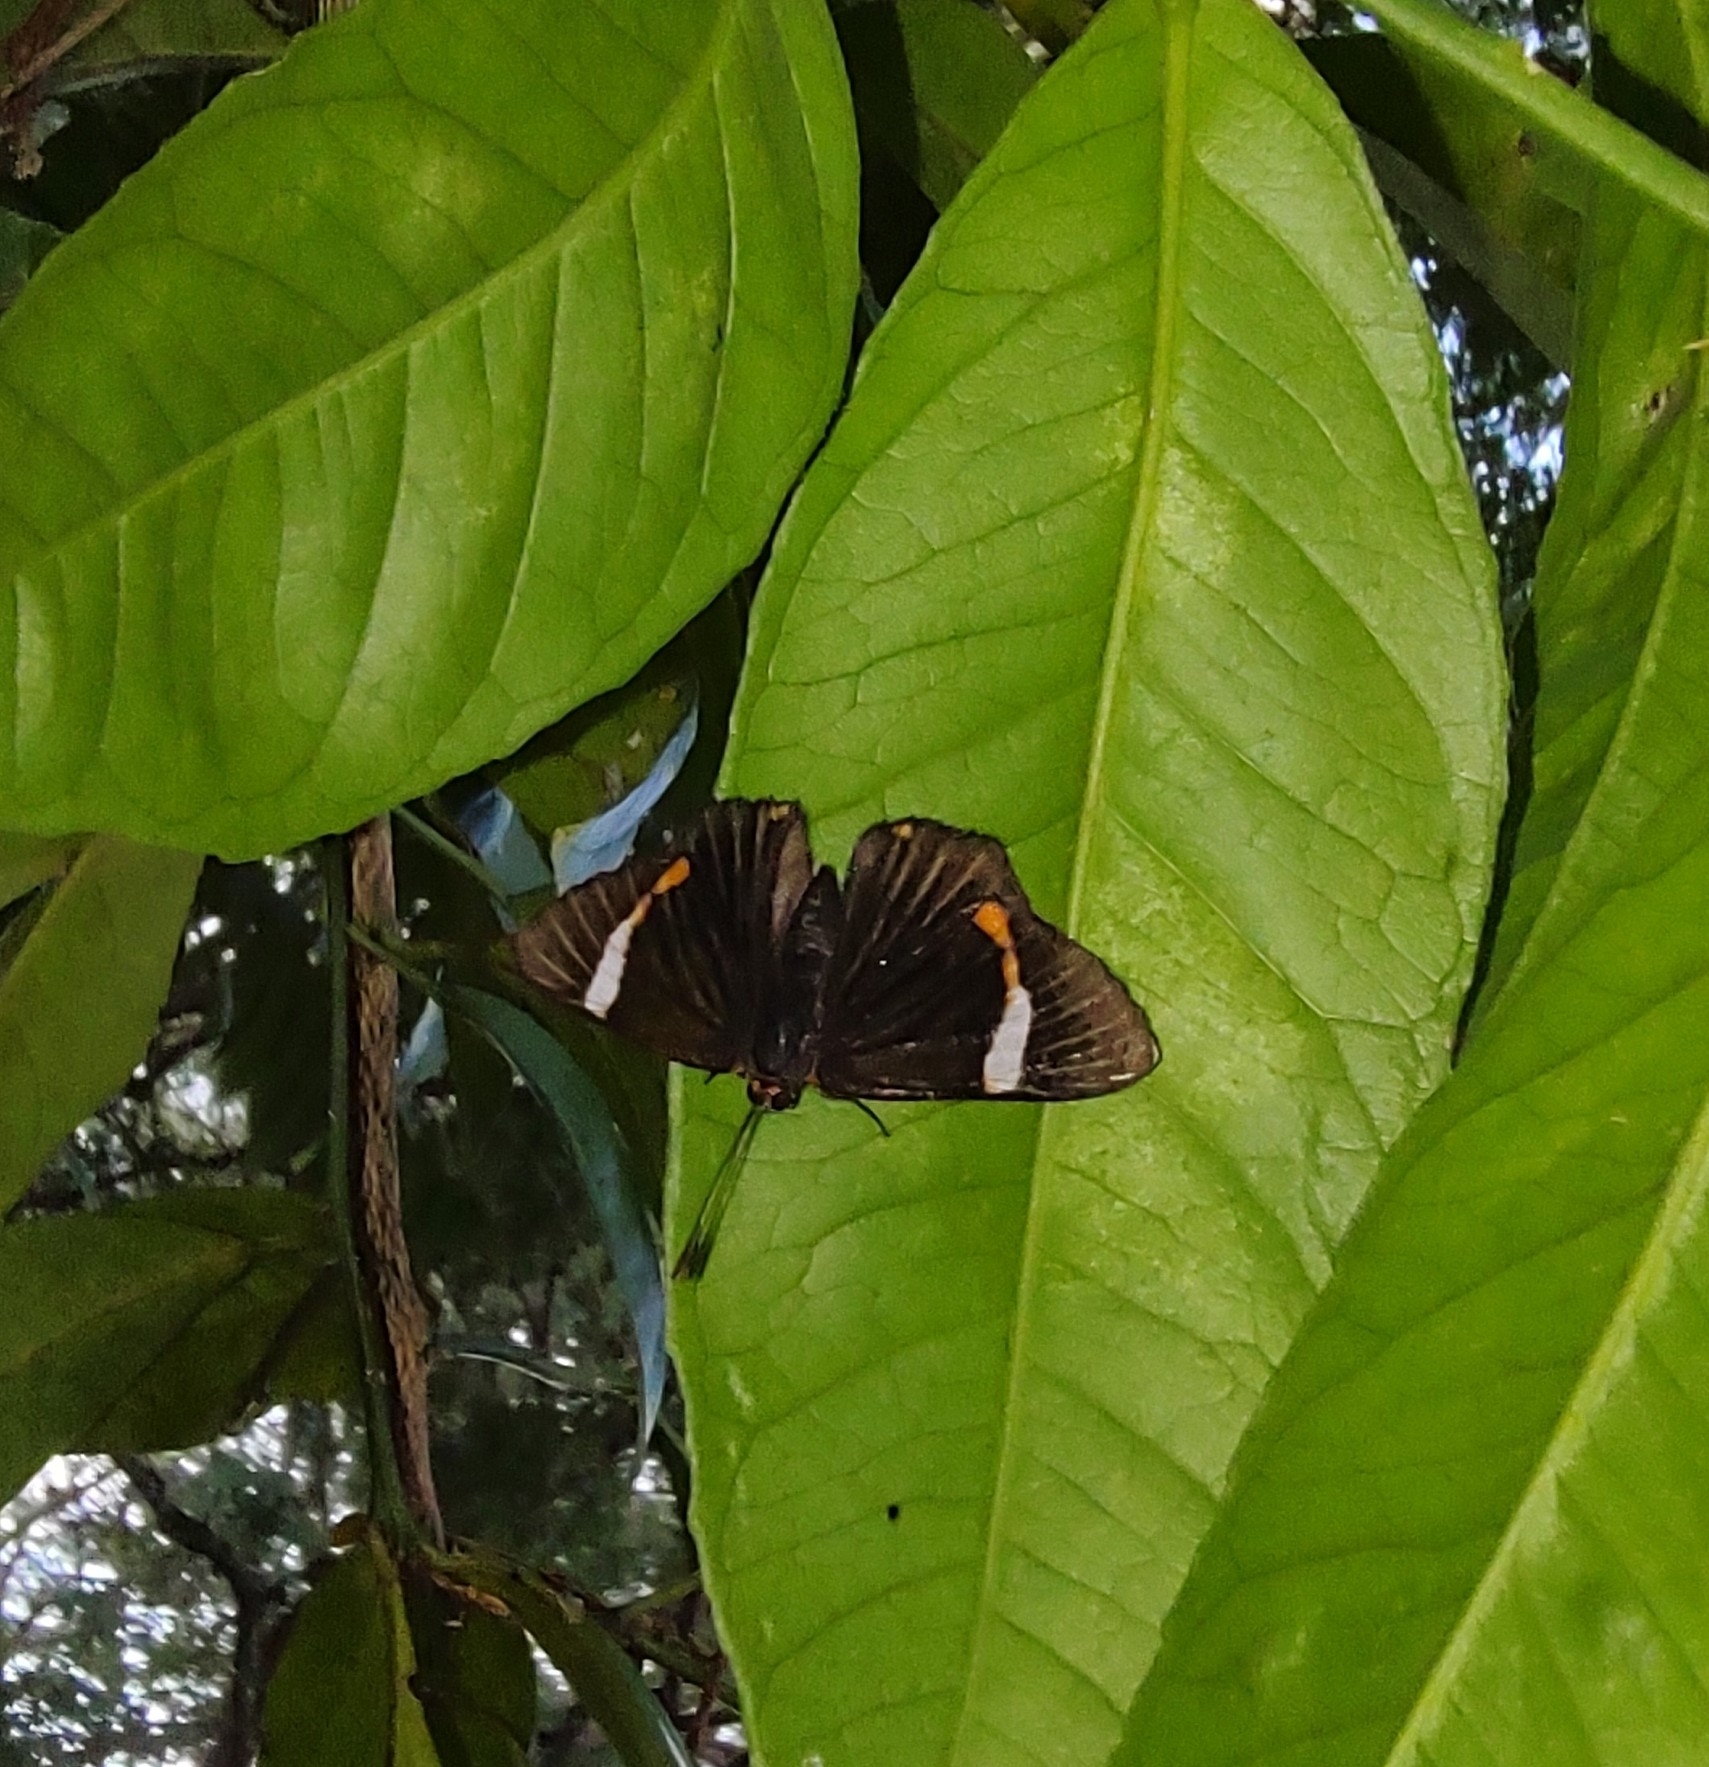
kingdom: Animalia
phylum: Arthropoda
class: Insecta
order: Lepidoptera
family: Riodinidae
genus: Riodina
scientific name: Riodina lycisca
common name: Lycisca metalmark
